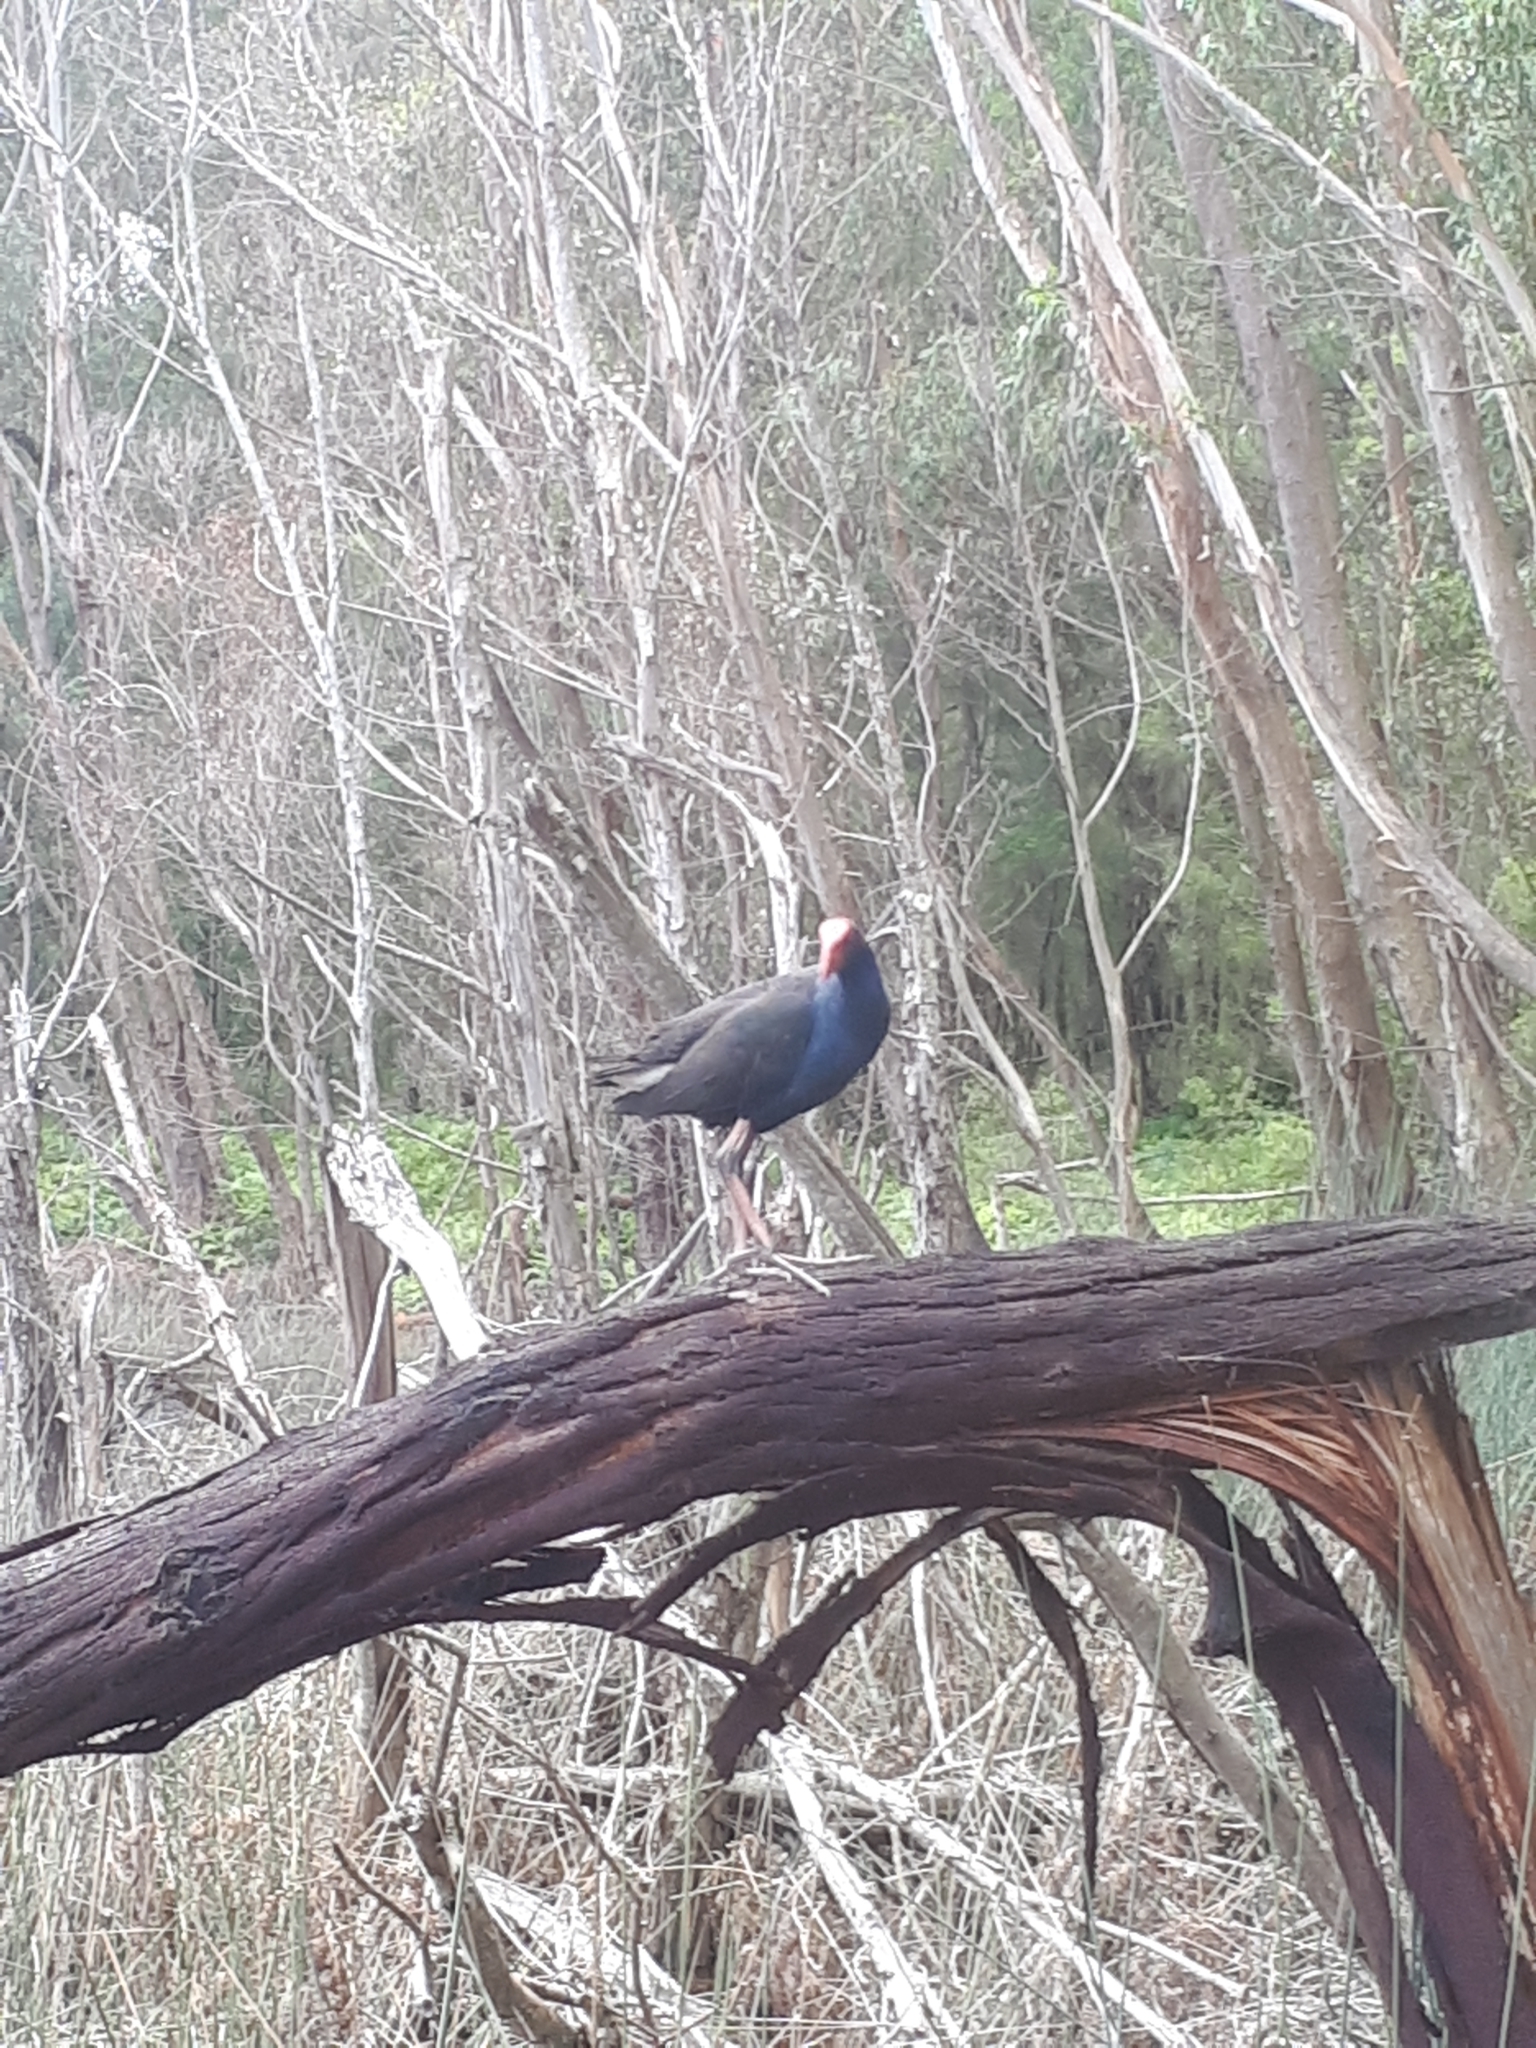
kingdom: Animalia
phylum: Chordata
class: Aves
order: Gruiformes
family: Rallidae
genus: Porphyrio
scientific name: Porphyrio melanotus
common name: Australasian swamphen
